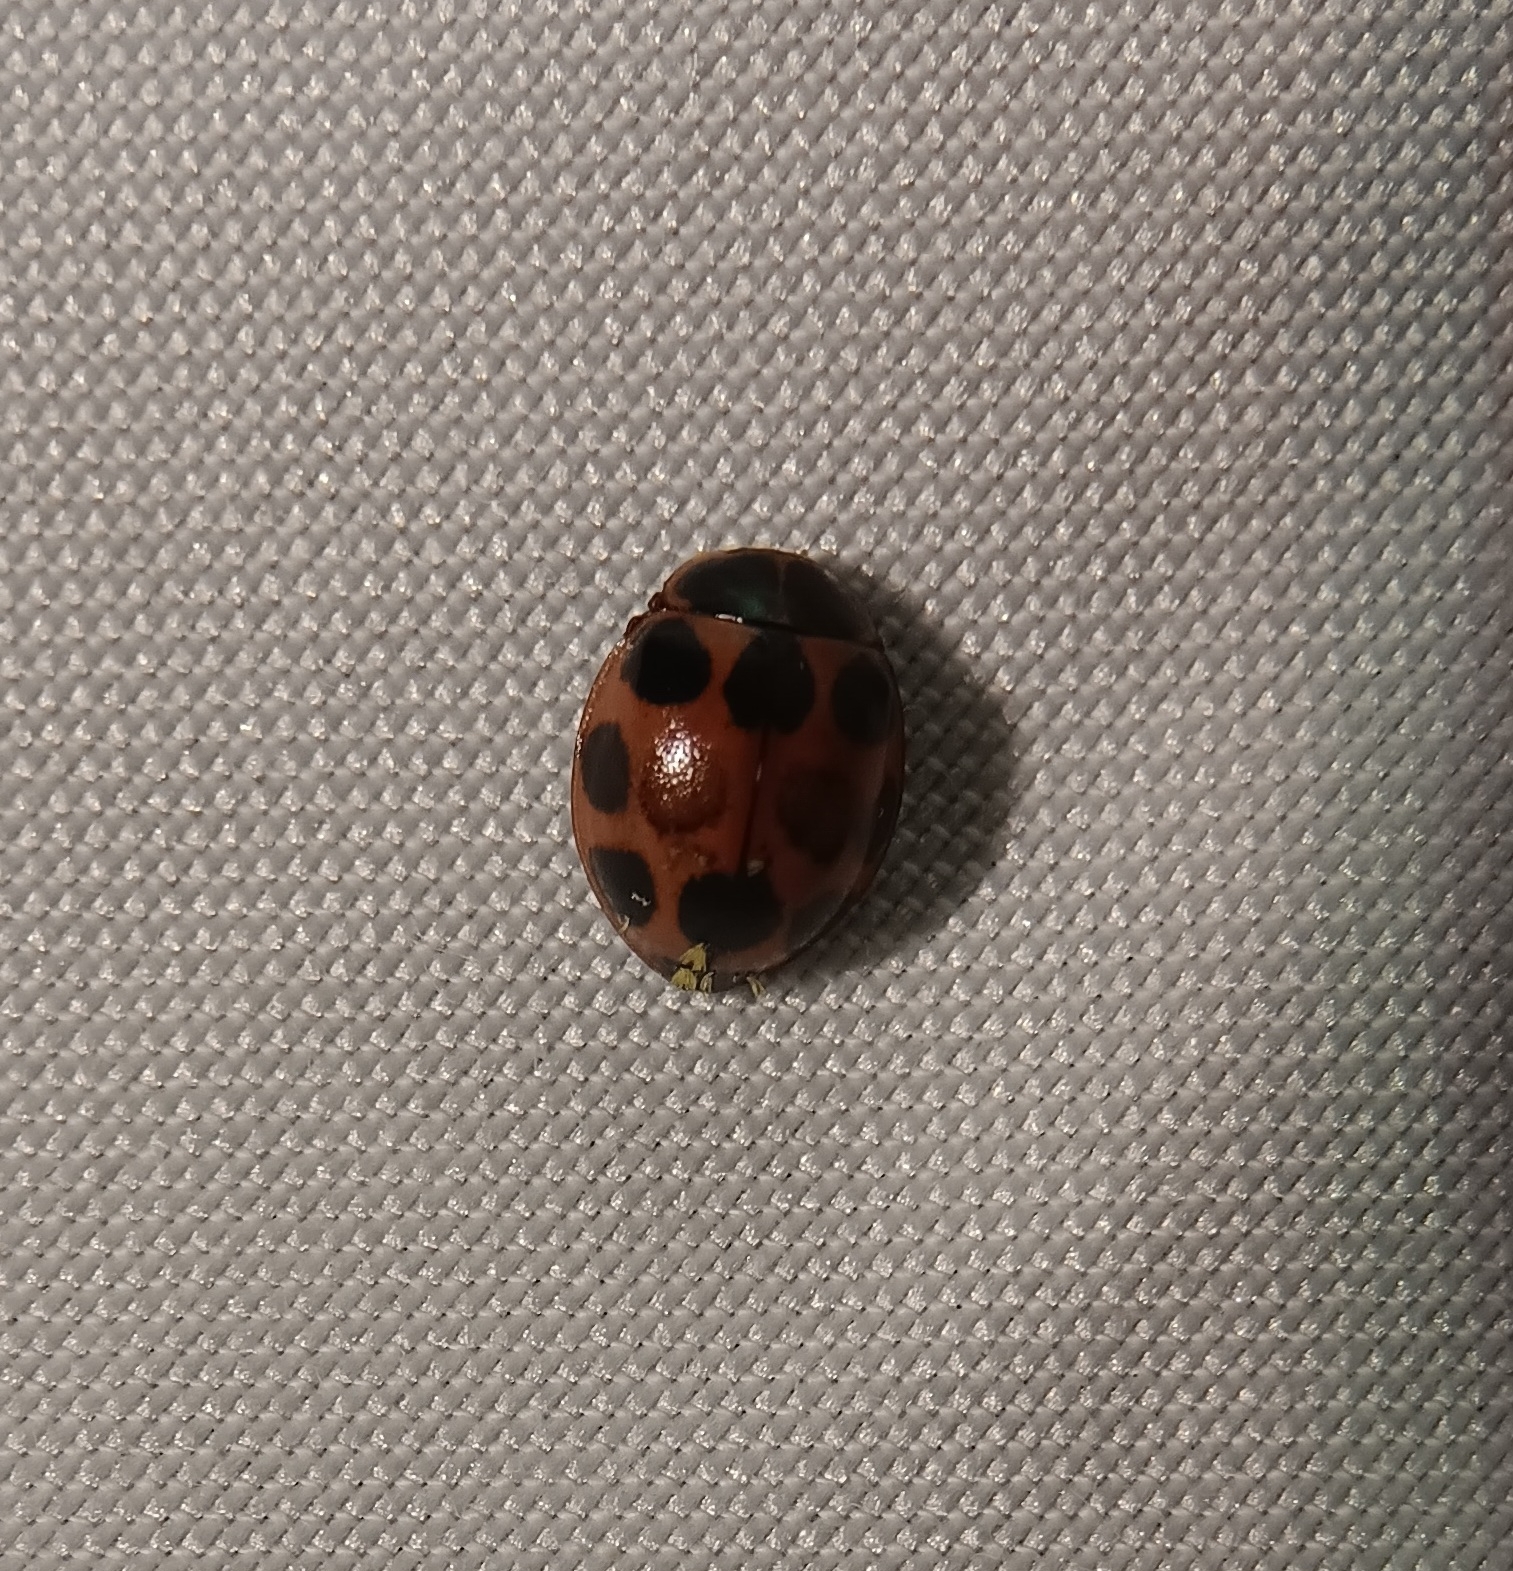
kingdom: Animalia
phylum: Arthropoda
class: Insecta
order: Coleoptera
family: Coccinellidae
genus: Calvia
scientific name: Calvia quatuordecimguttata
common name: Cream-spot ladybird
